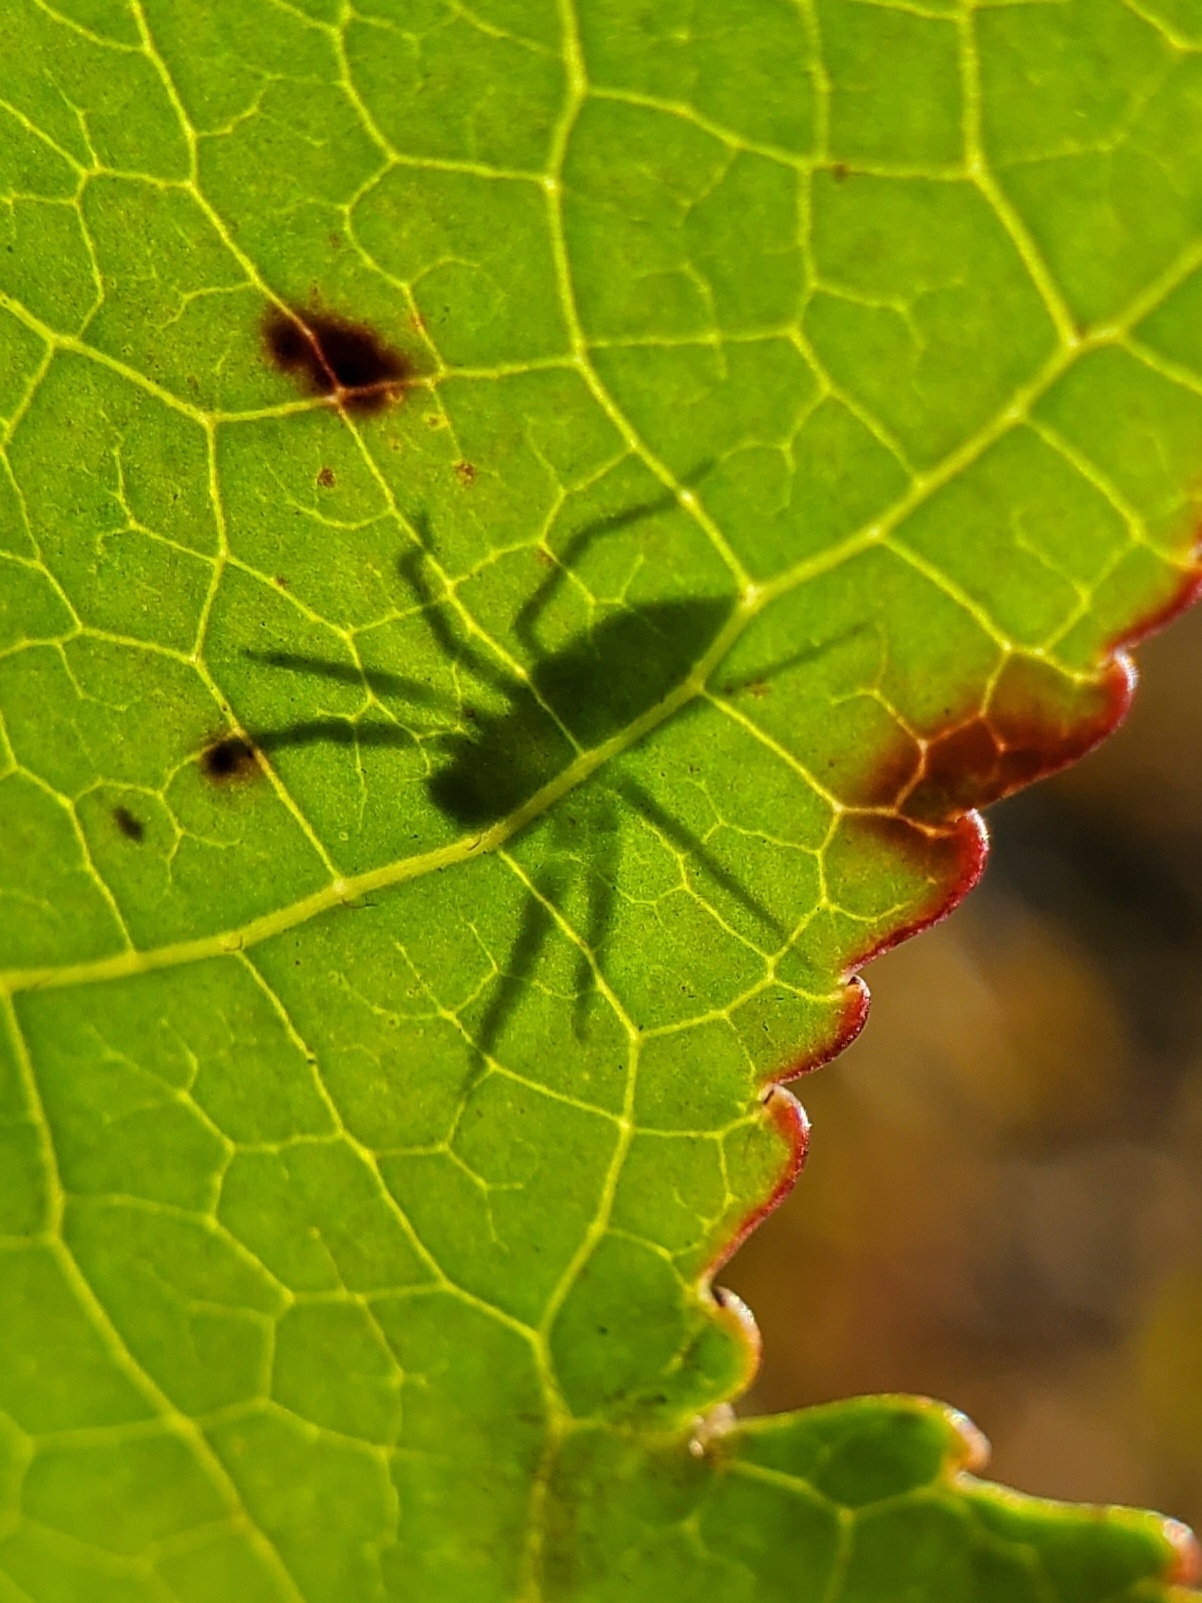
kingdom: Animalia
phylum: Arthropoda
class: Arachnida
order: Araneae
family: Salticidae
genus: Lyssomanes
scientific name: Lyssomanes viridis
